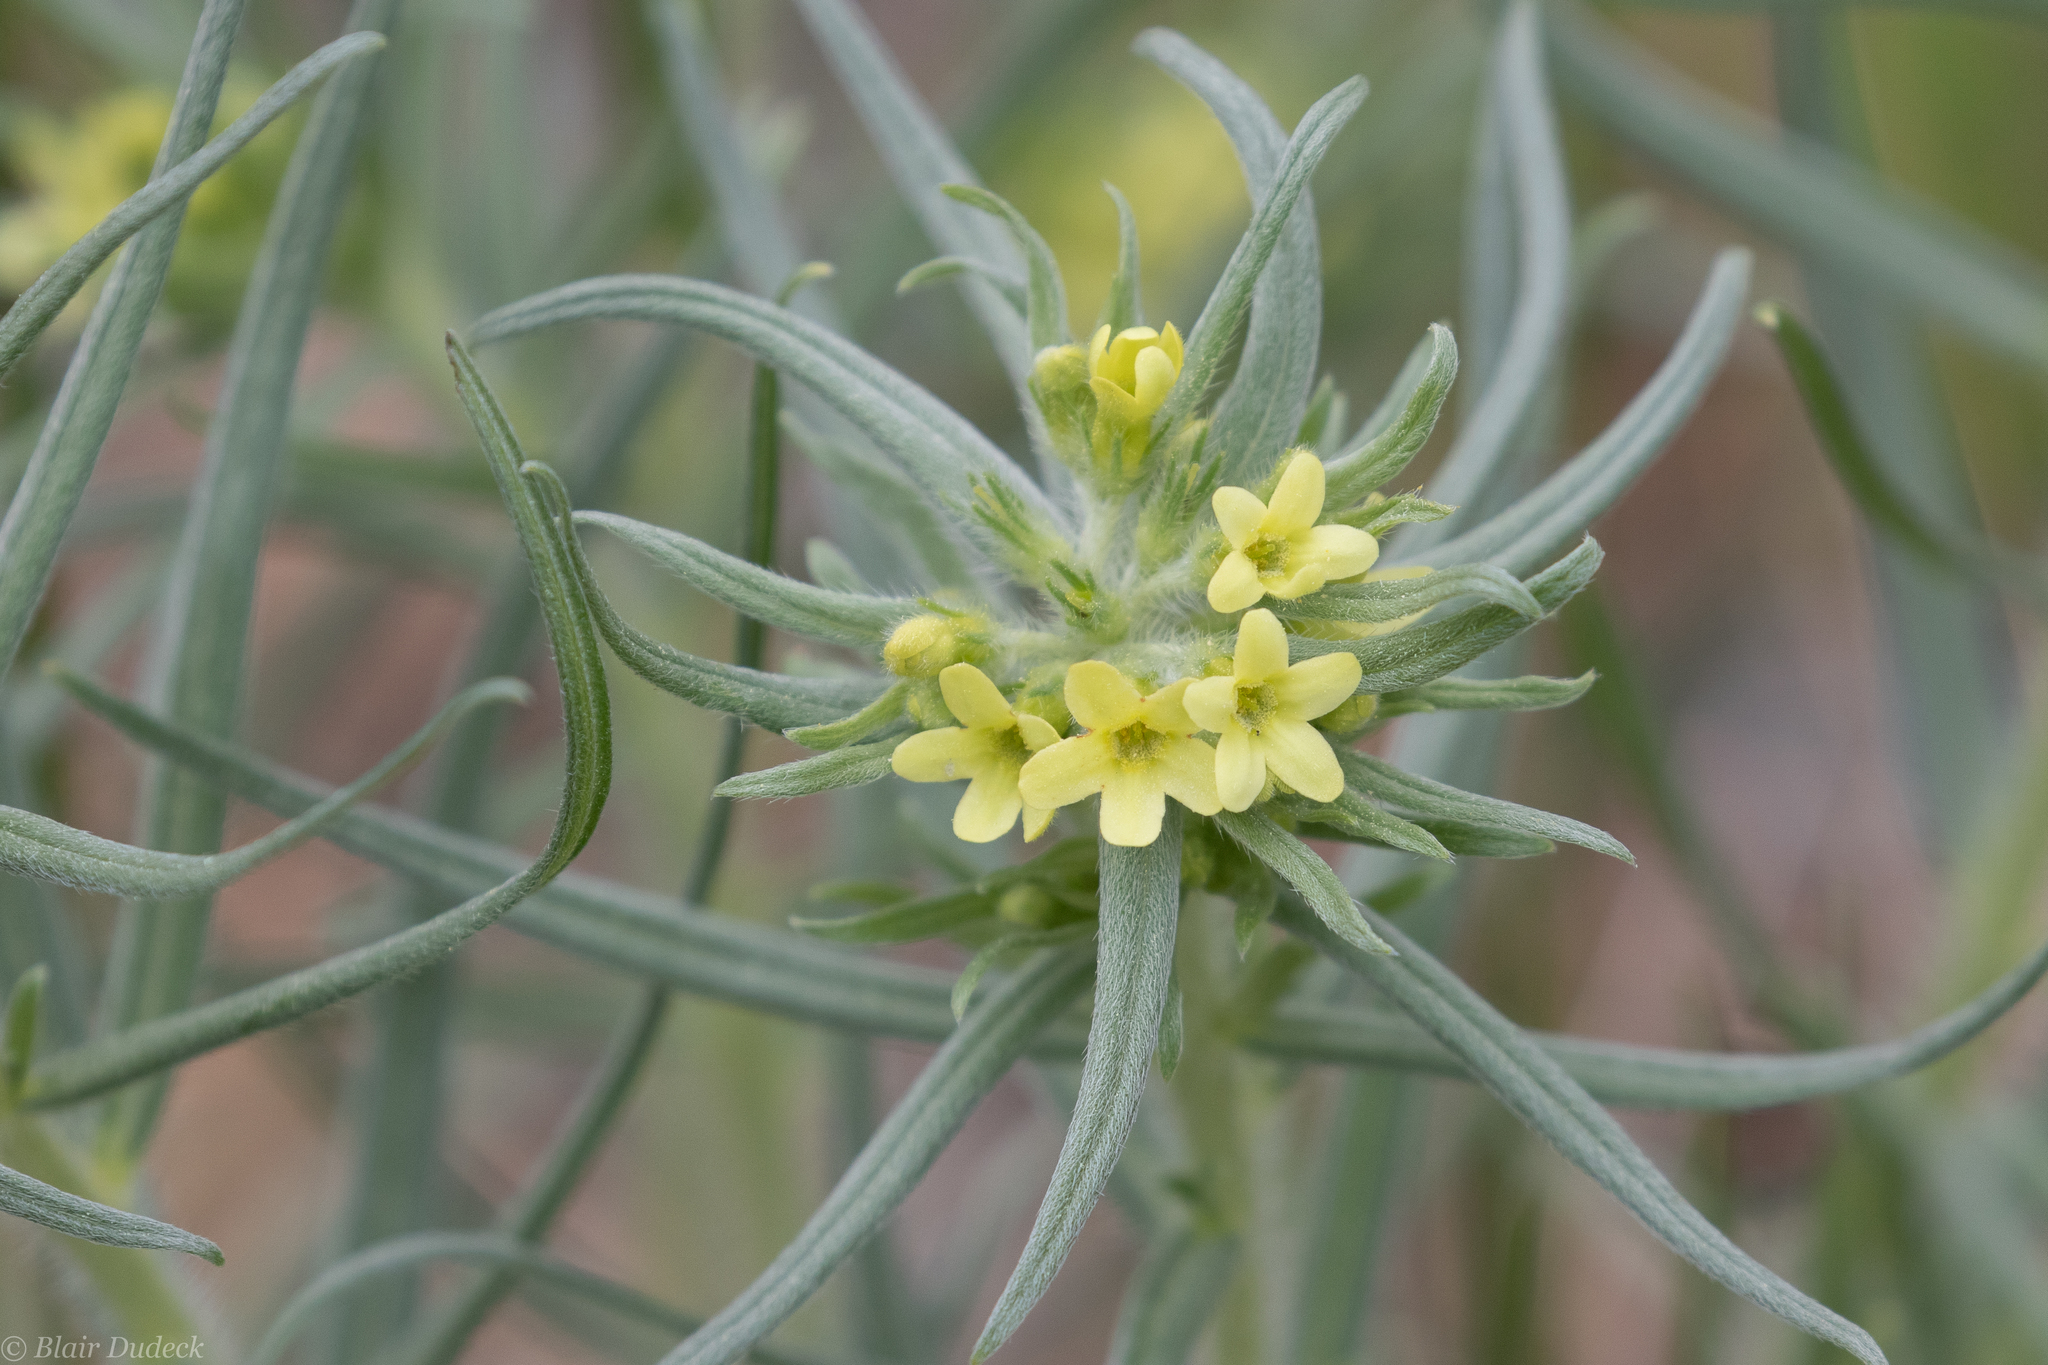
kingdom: Plantae
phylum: Tracheophyta
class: Magnoliopsida
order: Boraginales
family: Boraginaceae
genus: Lithospermum
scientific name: Lithospermum ruderale
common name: Western gromwell
